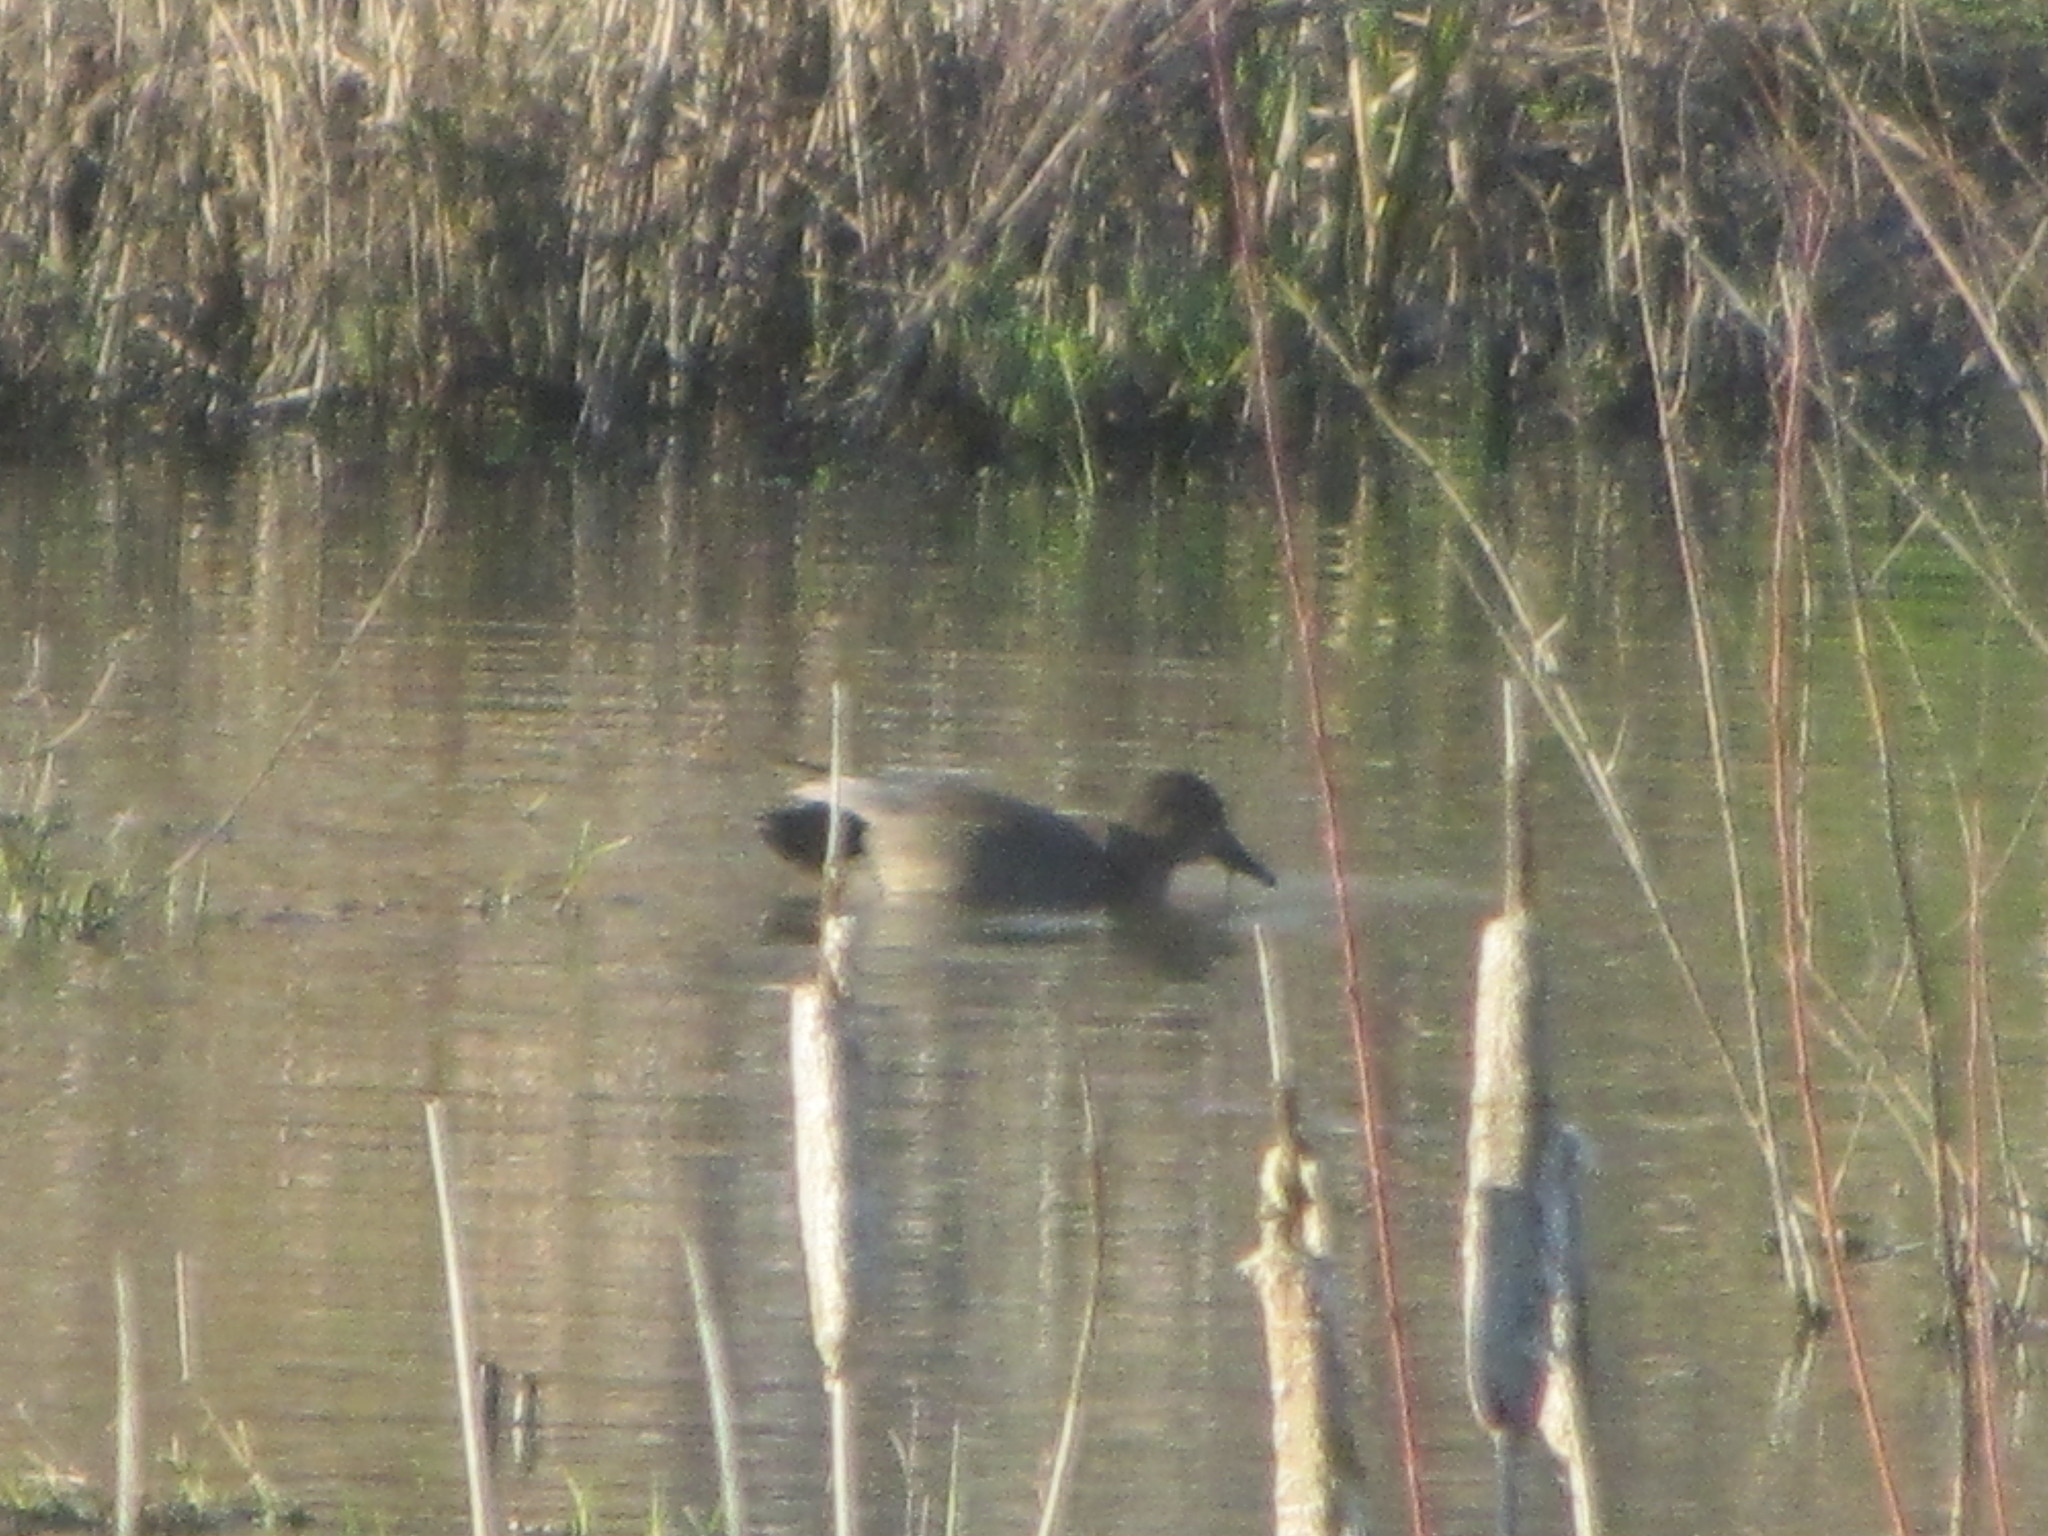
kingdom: Animalia
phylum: Chordata
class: Aves
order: Anseriformes
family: Anatidae
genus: Mareca
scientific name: Mareca strepera
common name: Gadwall
